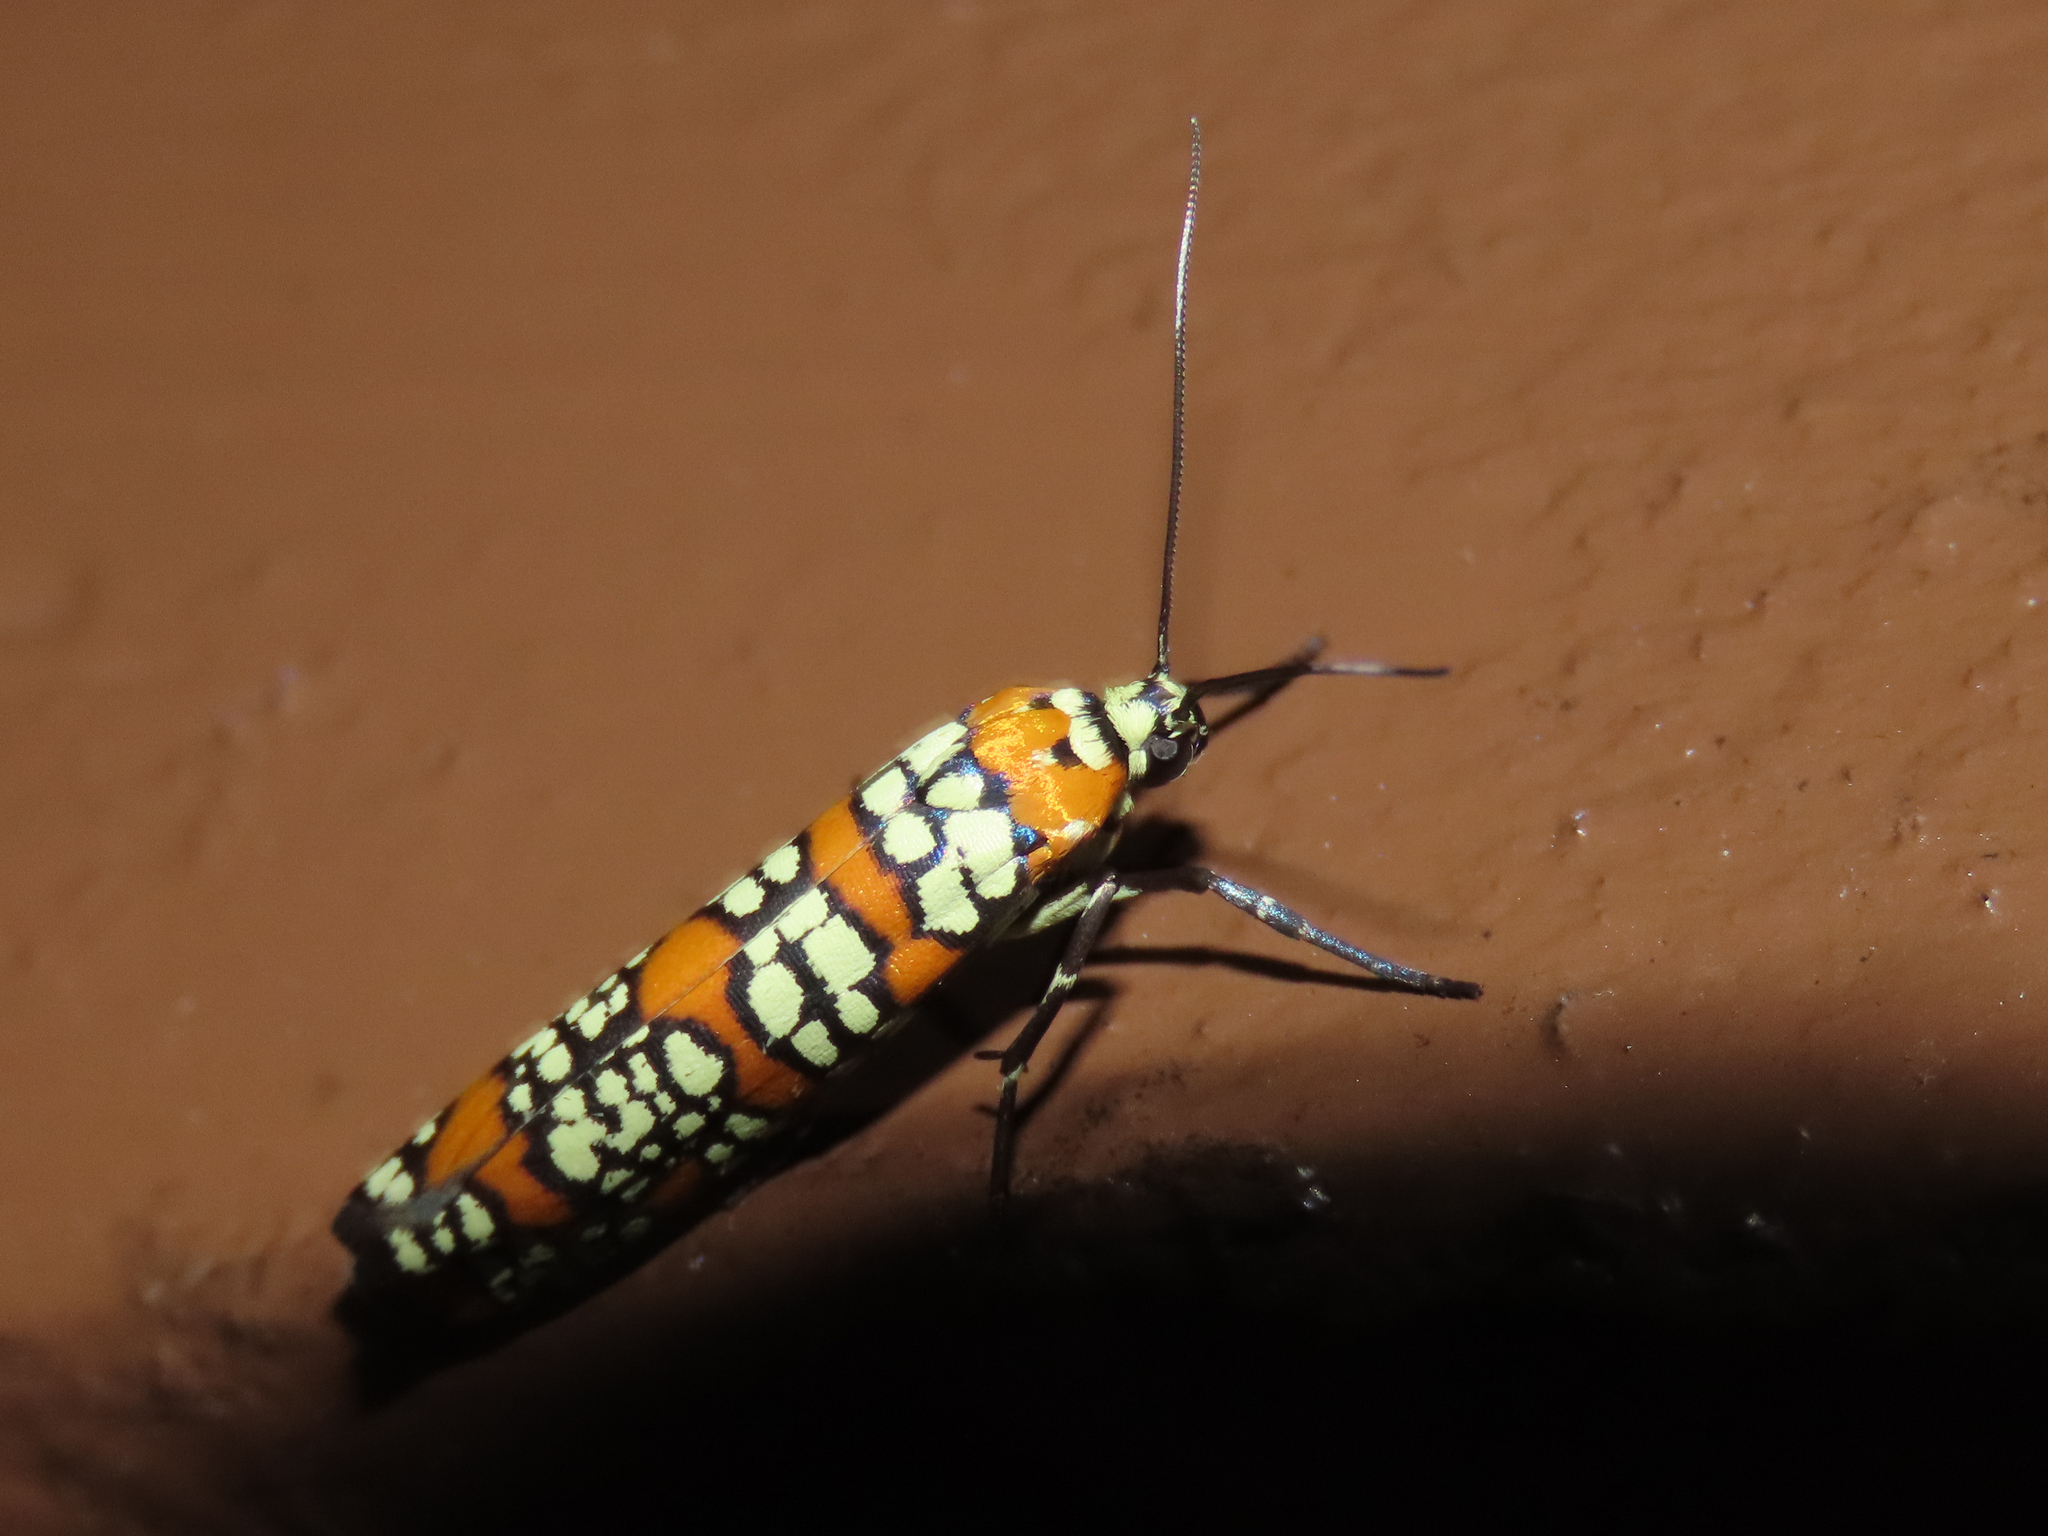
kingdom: Animalia
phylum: Arthropoda
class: Insecta
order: Lepidoptera
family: Attevidae
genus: Atteva
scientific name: Atteva punctella
